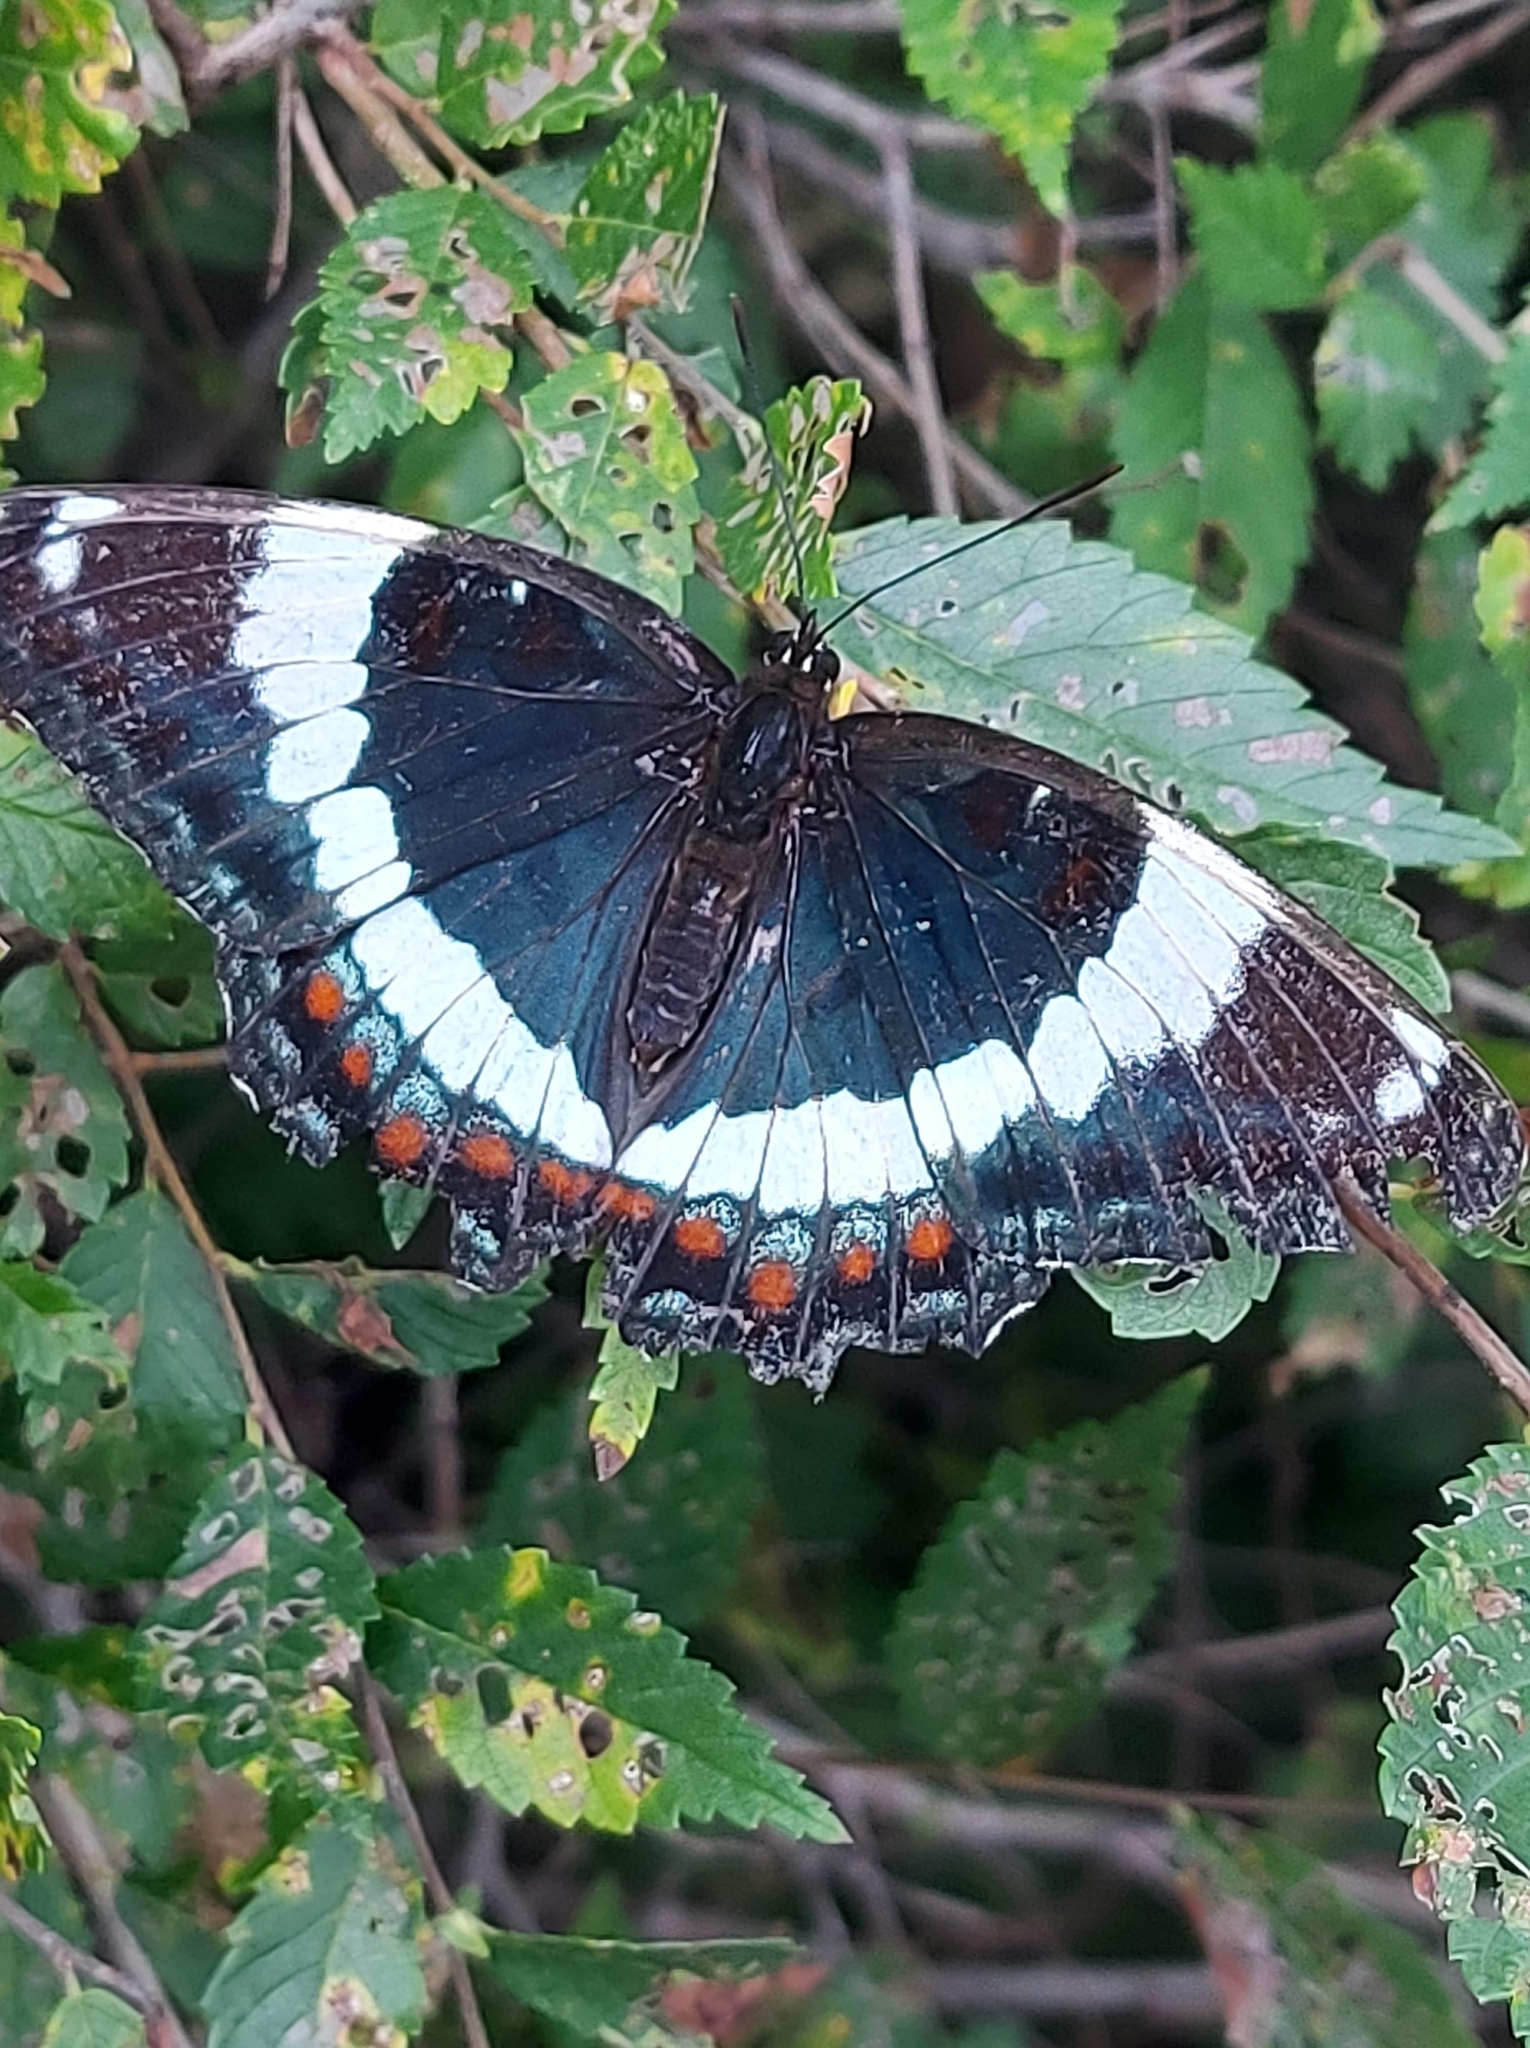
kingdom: Animalia
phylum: Arthropoda
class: Insecta
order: Lepidoptera
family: Nymphalidae
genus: Limenitis
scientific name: Limenitis arthemis
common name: Red-spotted admiral
